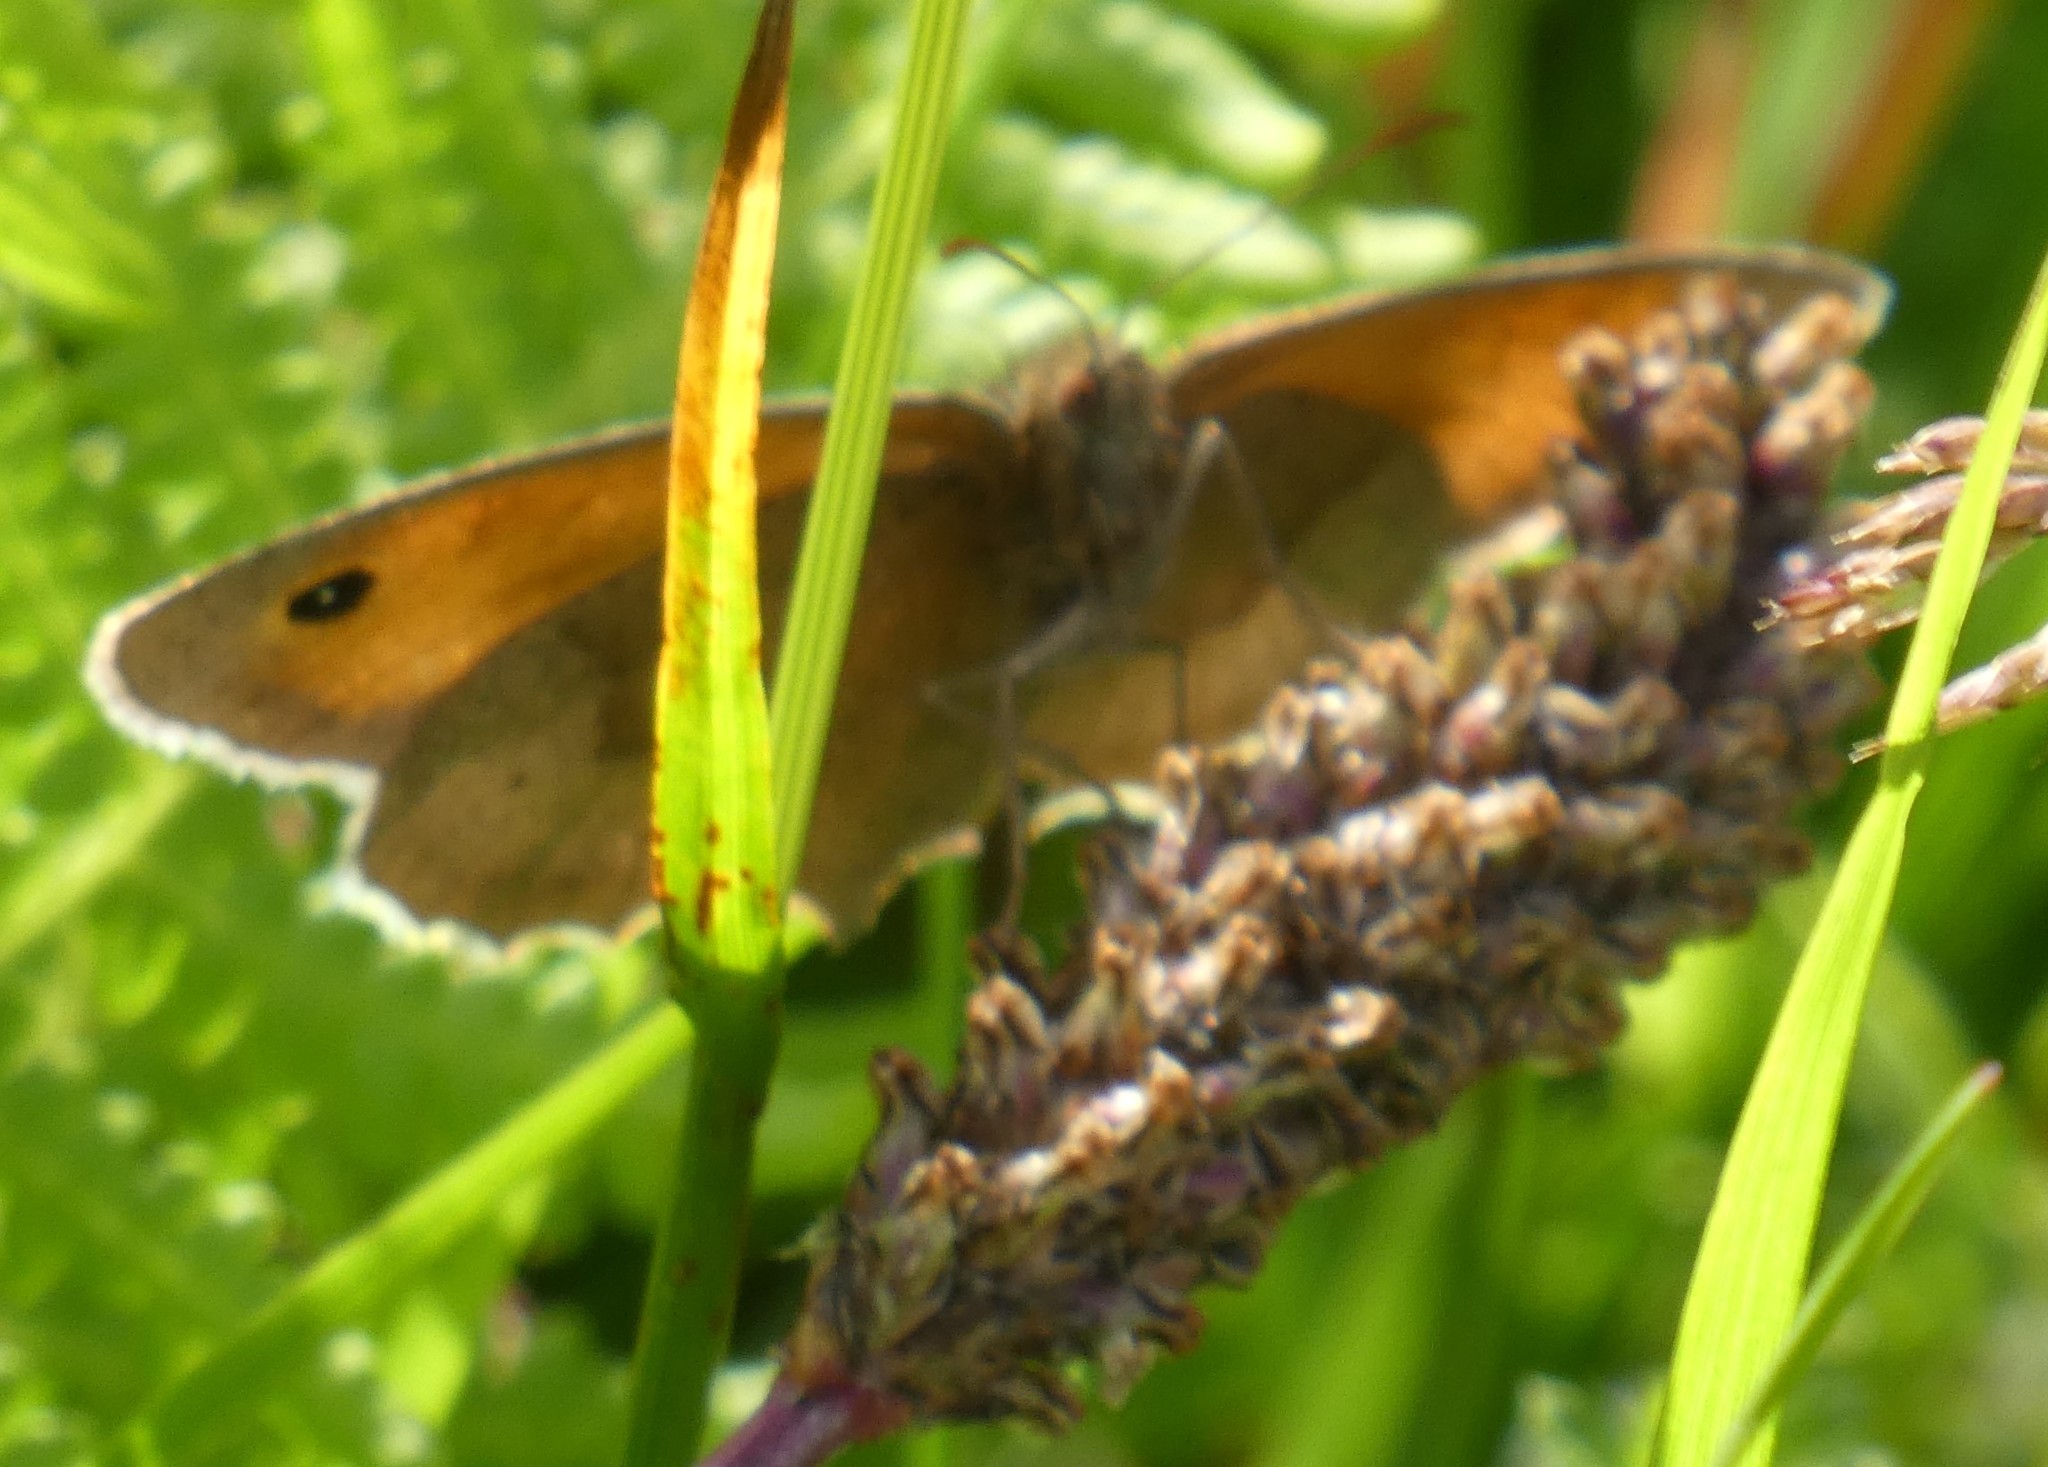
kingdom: Animalia
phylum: Arthropoda
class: Insecta
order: Lepidoptera
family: Nymphalidae
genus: Maniola
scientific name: Maniola jurtina
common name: Meadow brown
